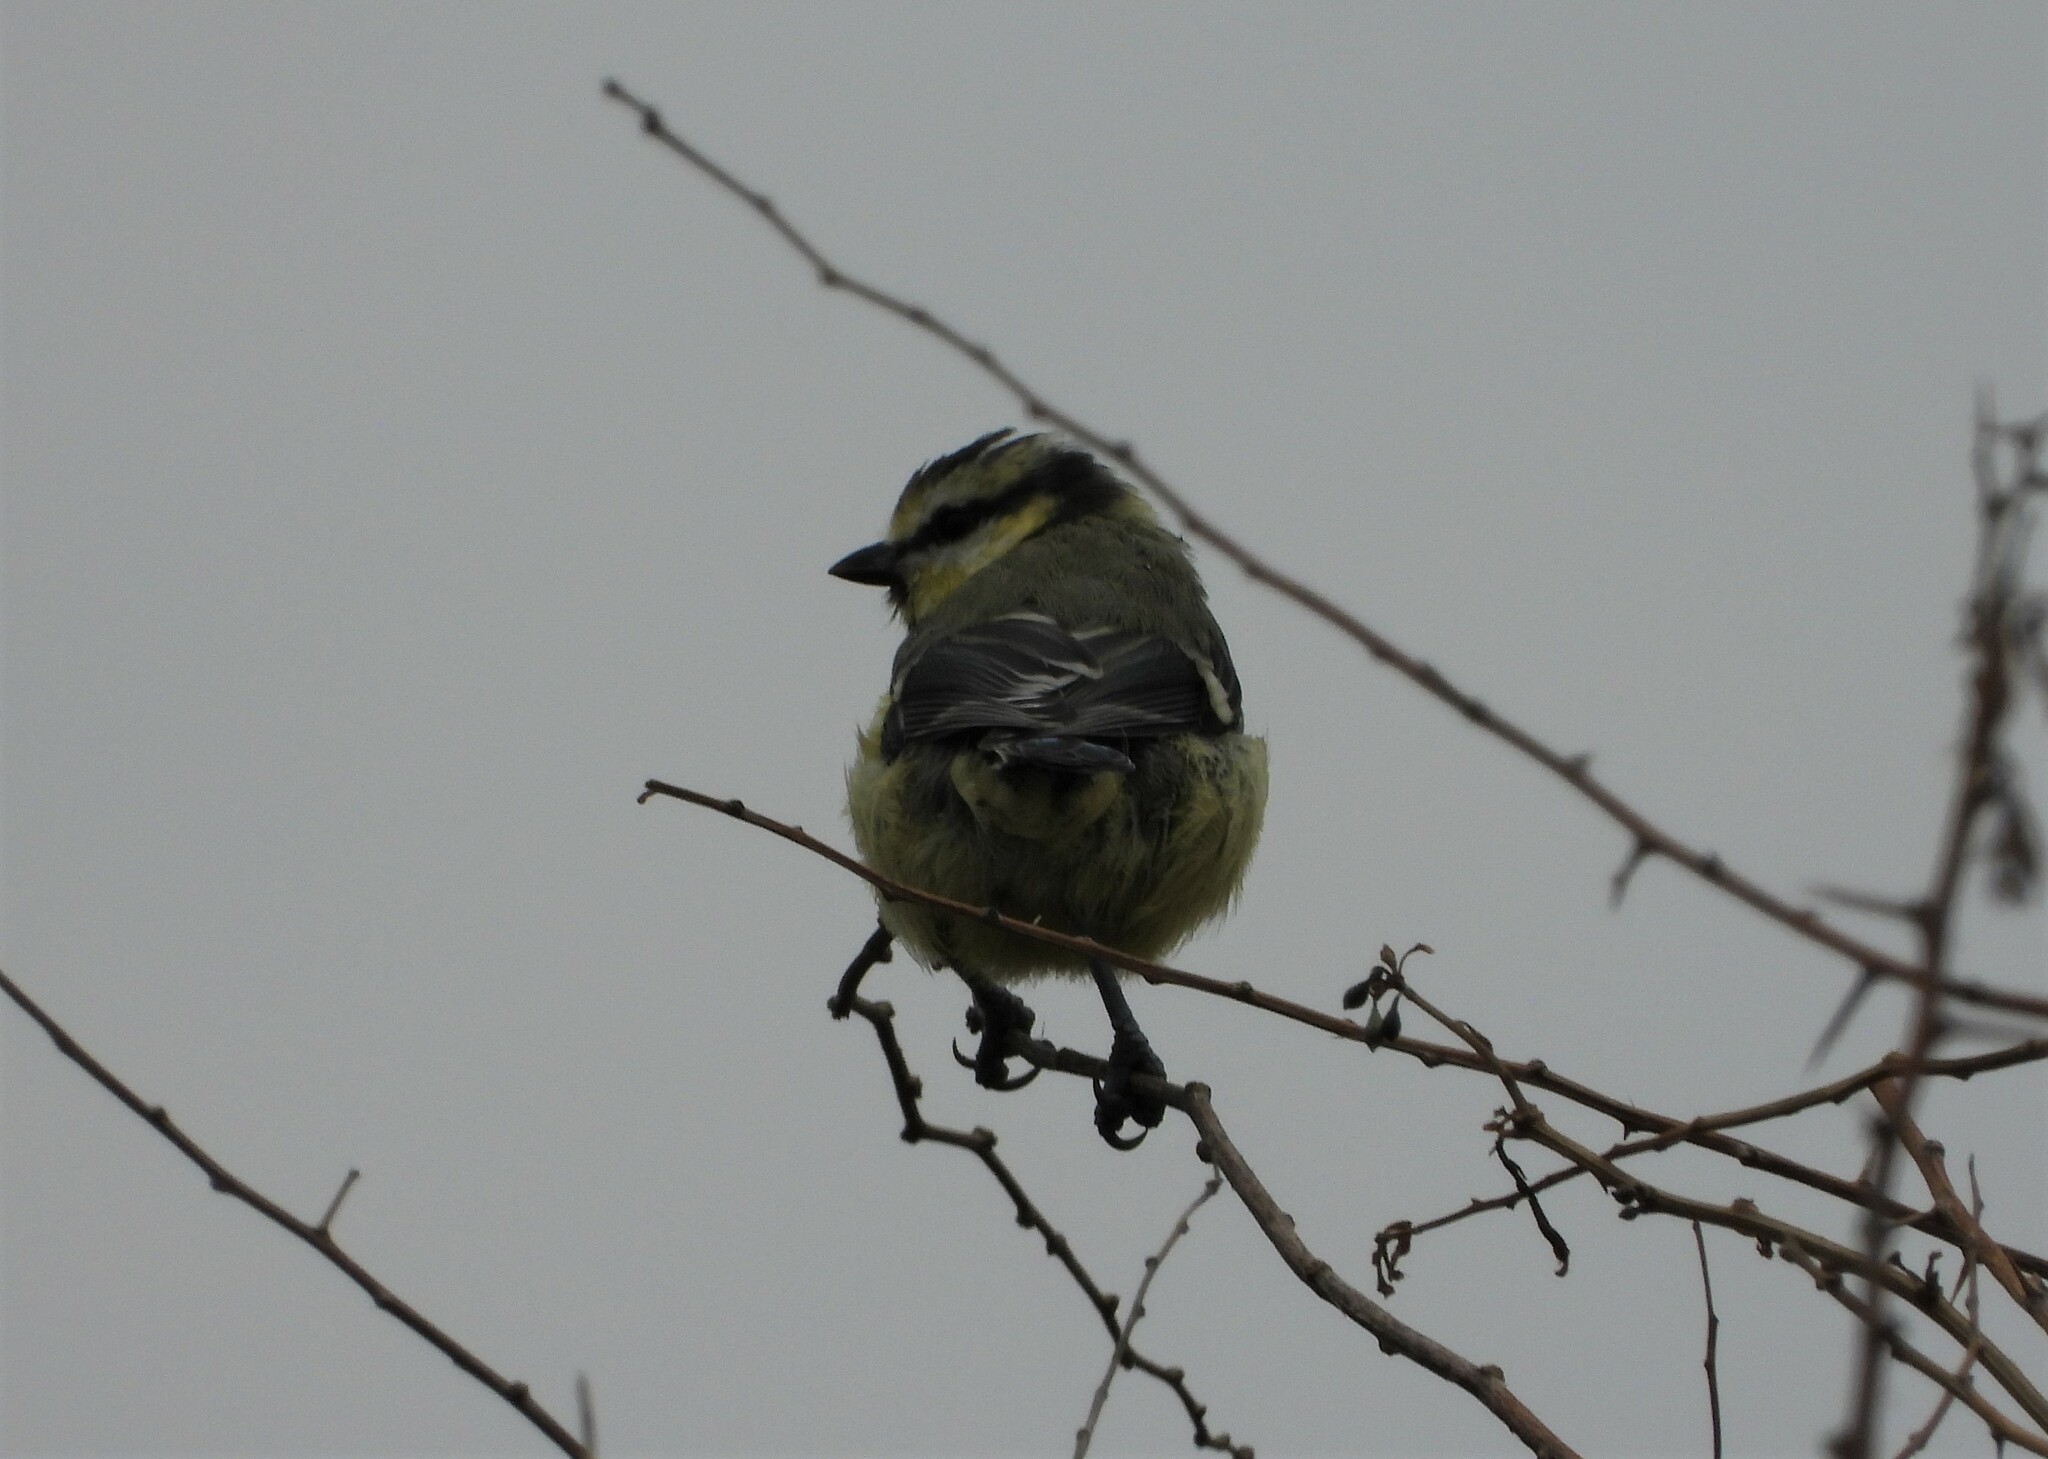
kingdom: Animalia
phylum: Chordata
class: Aves
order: Passeriformes
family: Paridae
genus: Cyanistes
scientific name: Cyanistes caeruleus
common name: Eurasian blue tit
